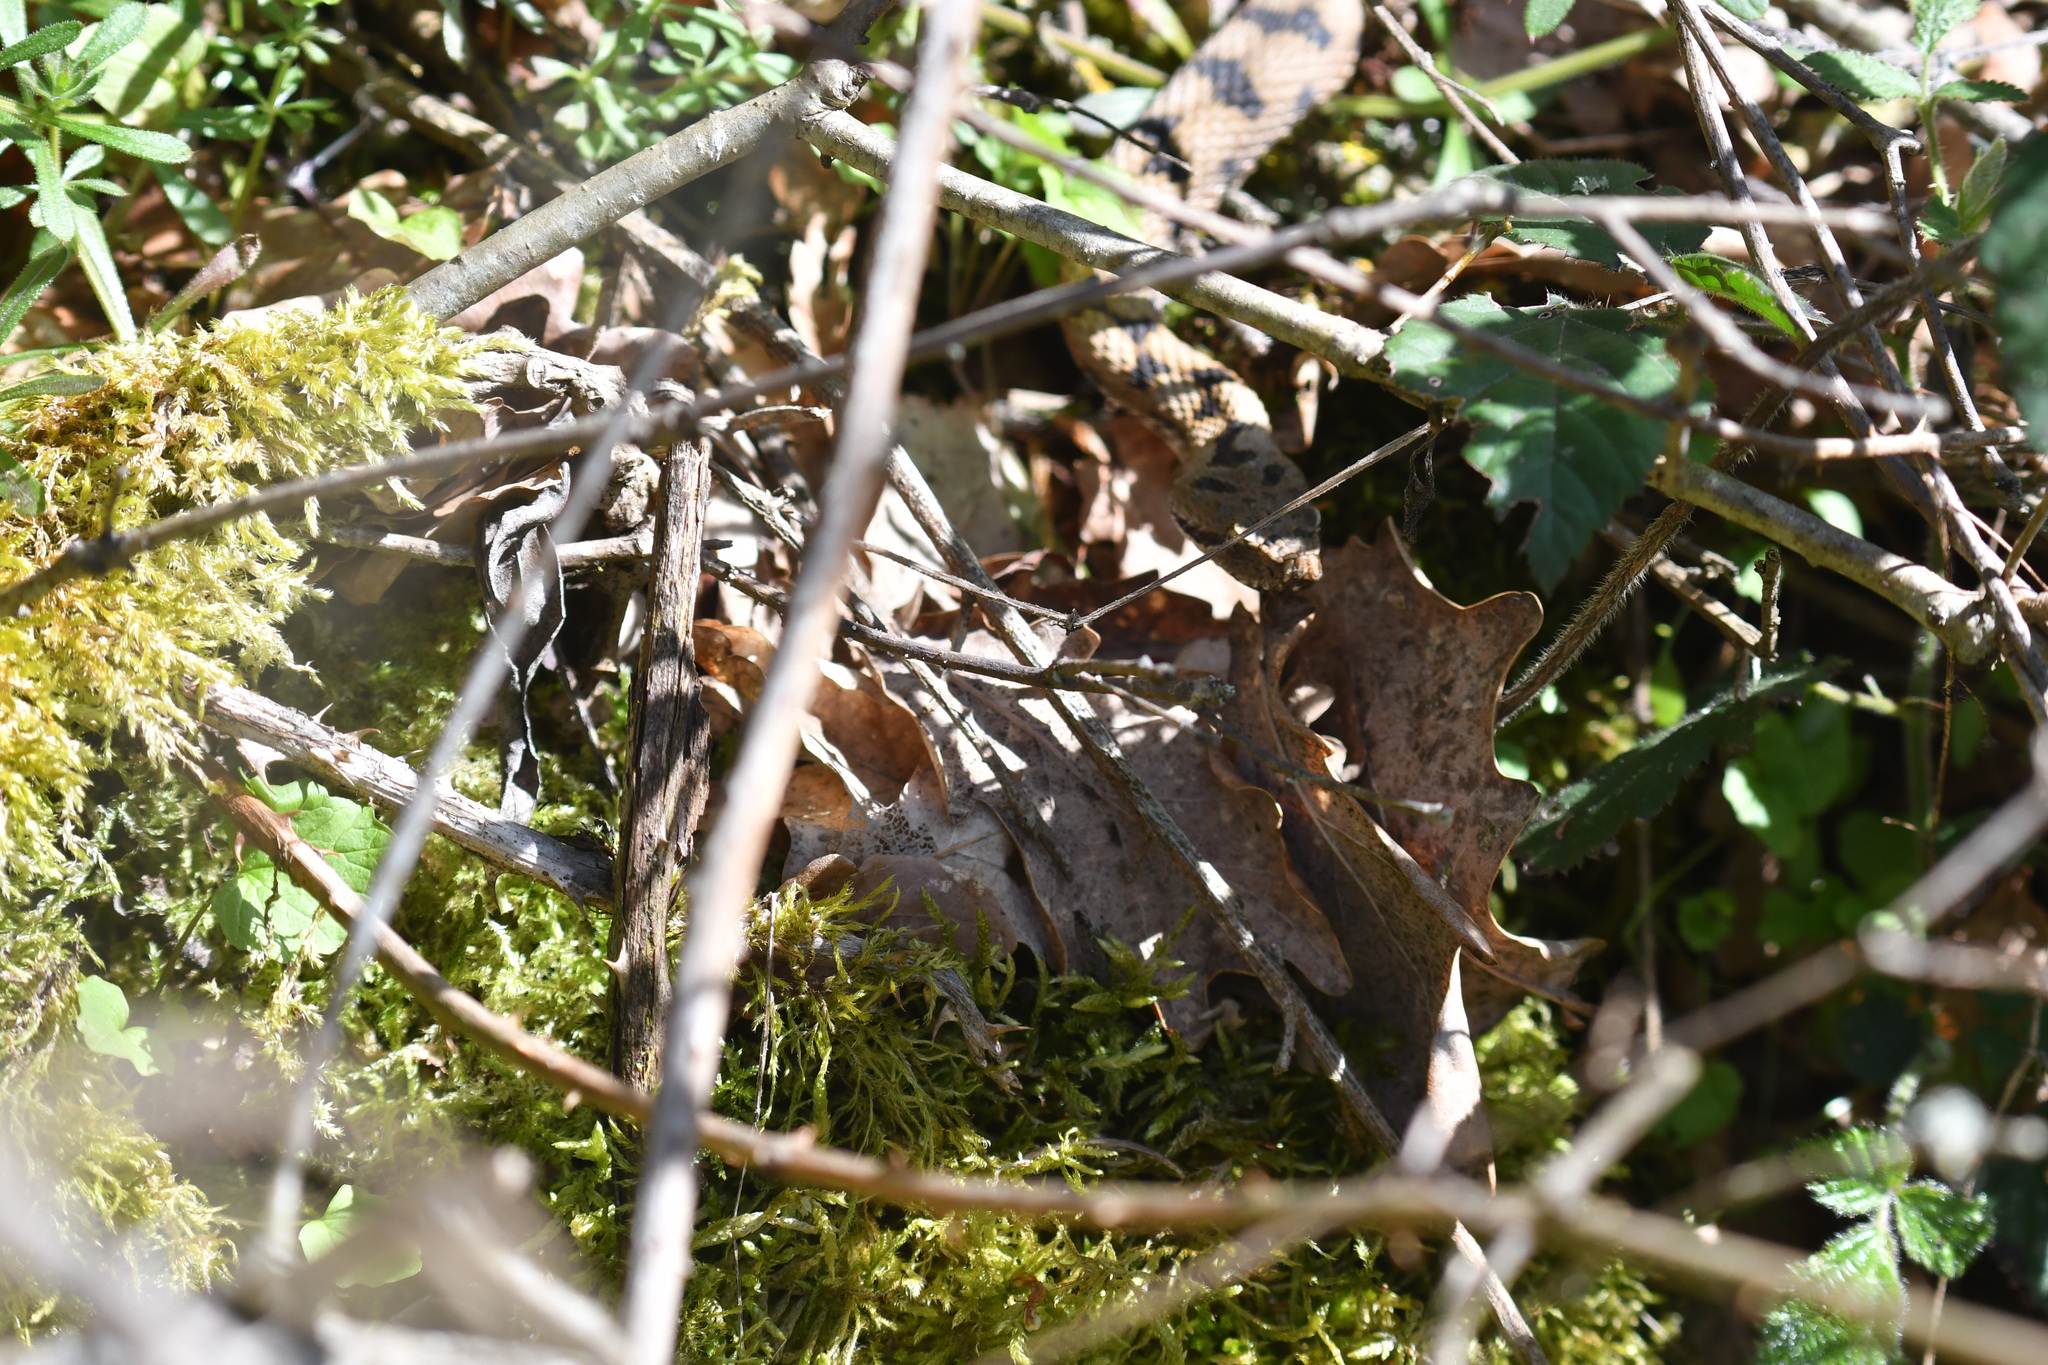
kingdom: Animalia
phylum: Chordata
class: Squamata
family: Viperidae
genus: Vipera
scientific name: Vipera aspis
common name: Asp viper
